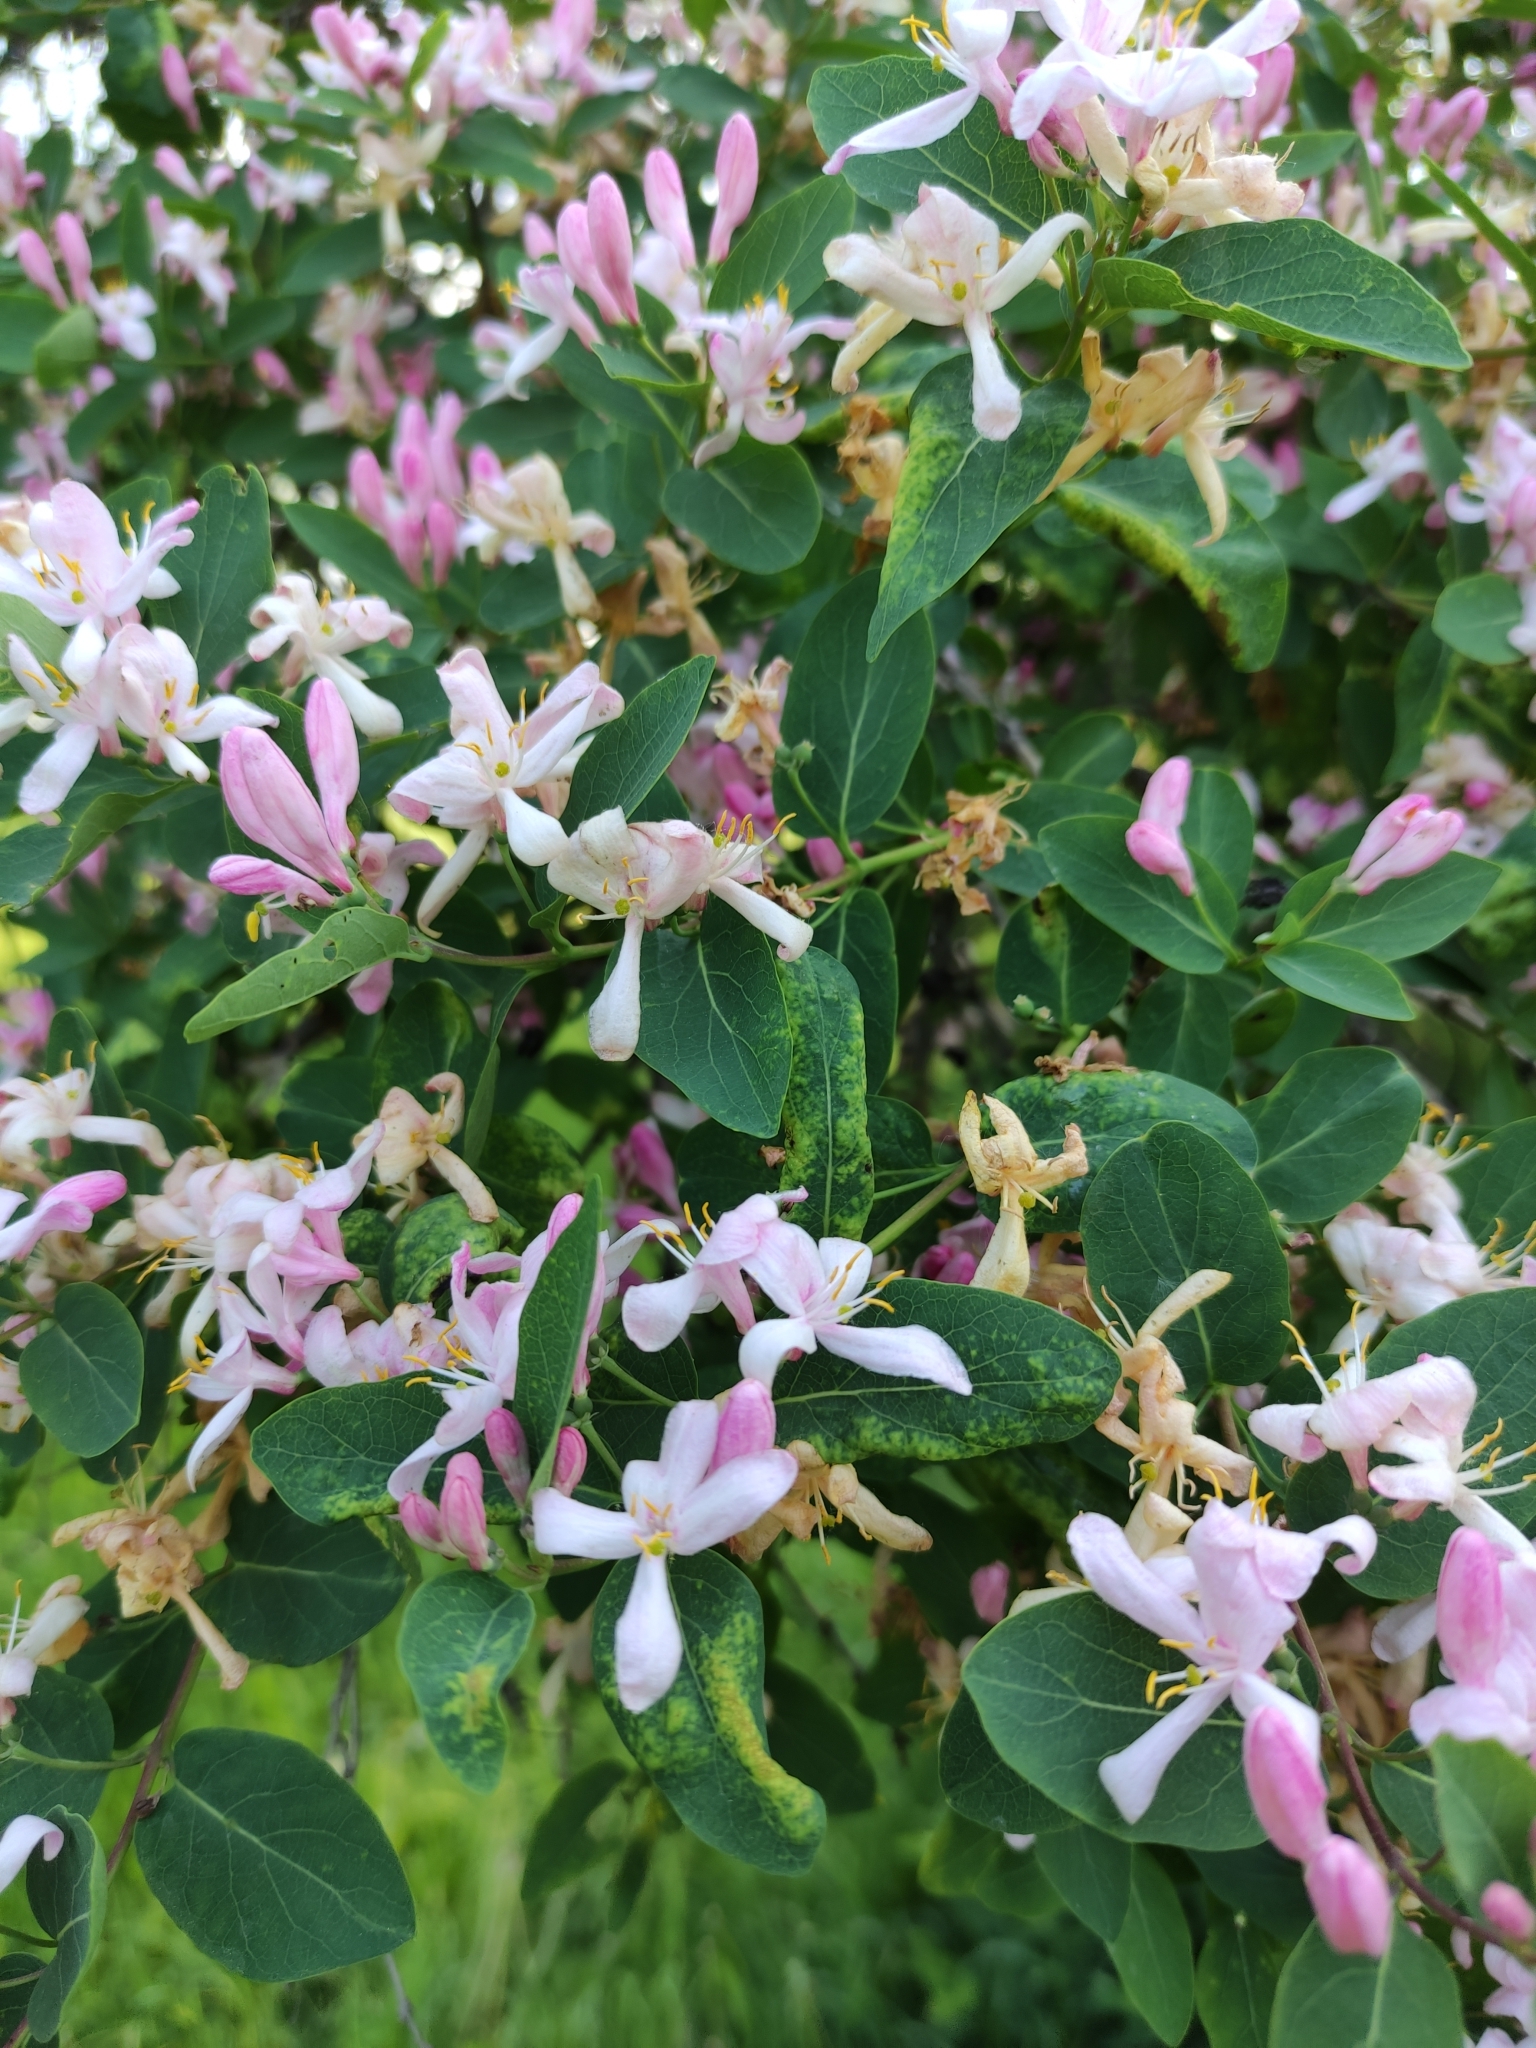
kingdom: Plantae
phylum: Tracheophyta
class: Magnoliopsida
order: Dipsacales
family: Caprifoliaceae
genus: Lonicera
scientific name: Lonicera tatarica
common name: Tatarian honeysuckle
